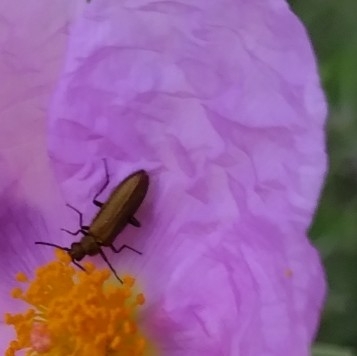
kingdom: Animalia
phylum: Arthropoda
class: Insecta
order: Coleoptera
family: Stenotrachelidae
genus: Stenotrachelus
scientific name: Stenotrachelus aeneus
